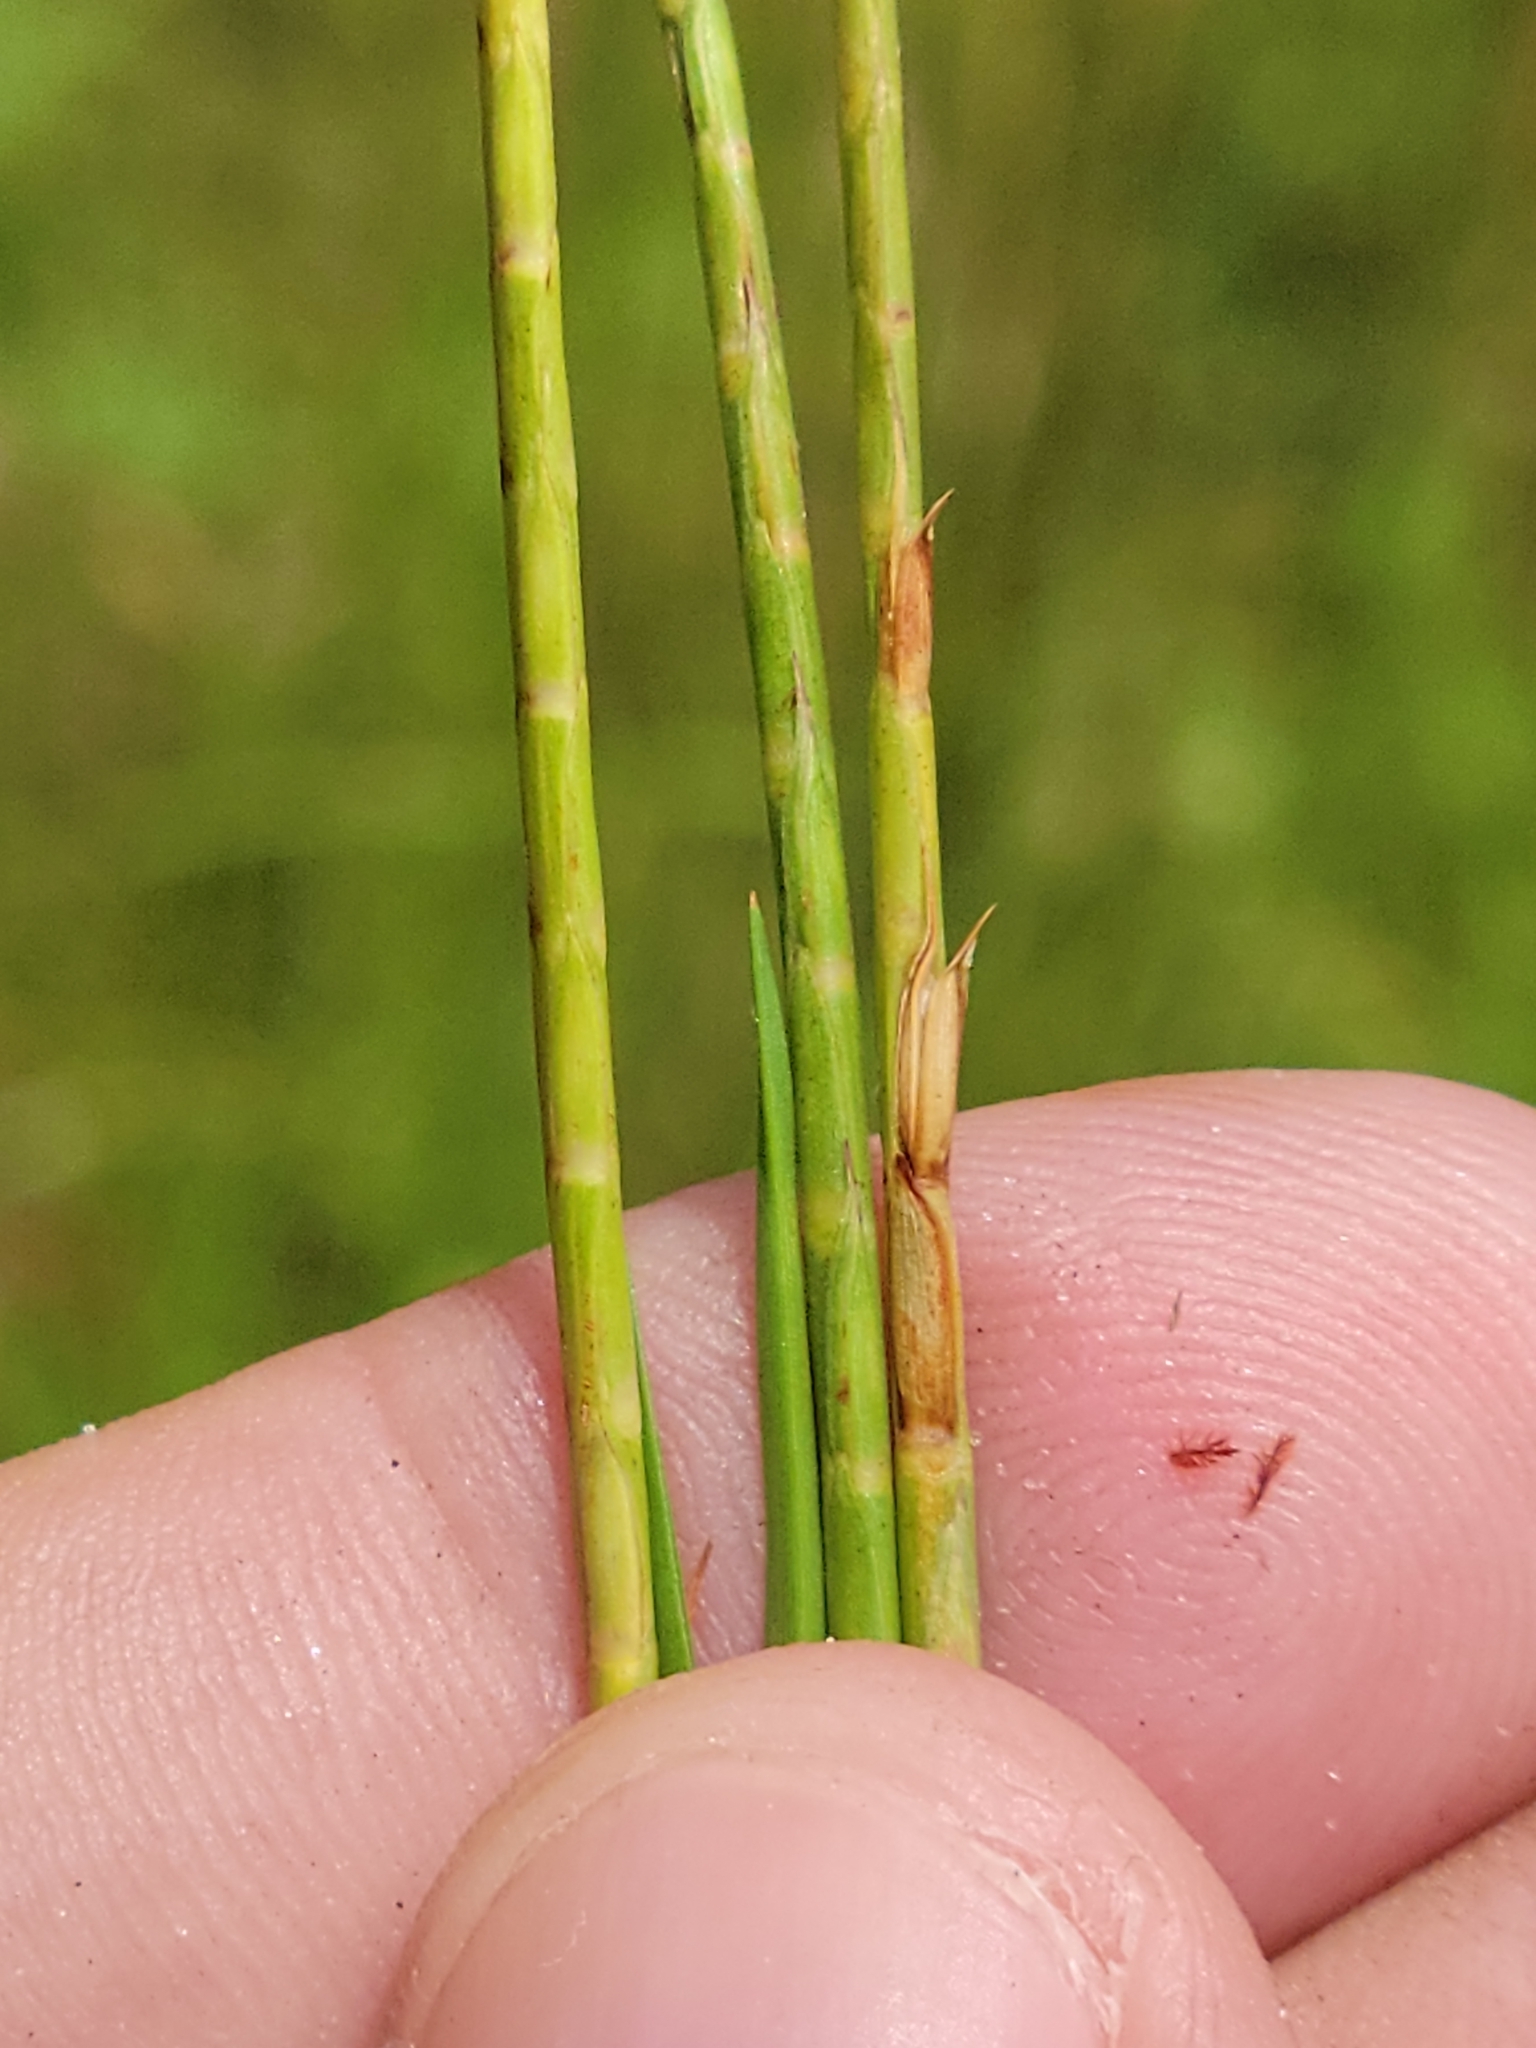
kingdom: Plantae
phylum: Tracheophyta
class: Liliopsida
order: Poales
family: Poaceae
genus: Hemarthria
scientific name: Hemarthria altissima
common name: African jointgrass
